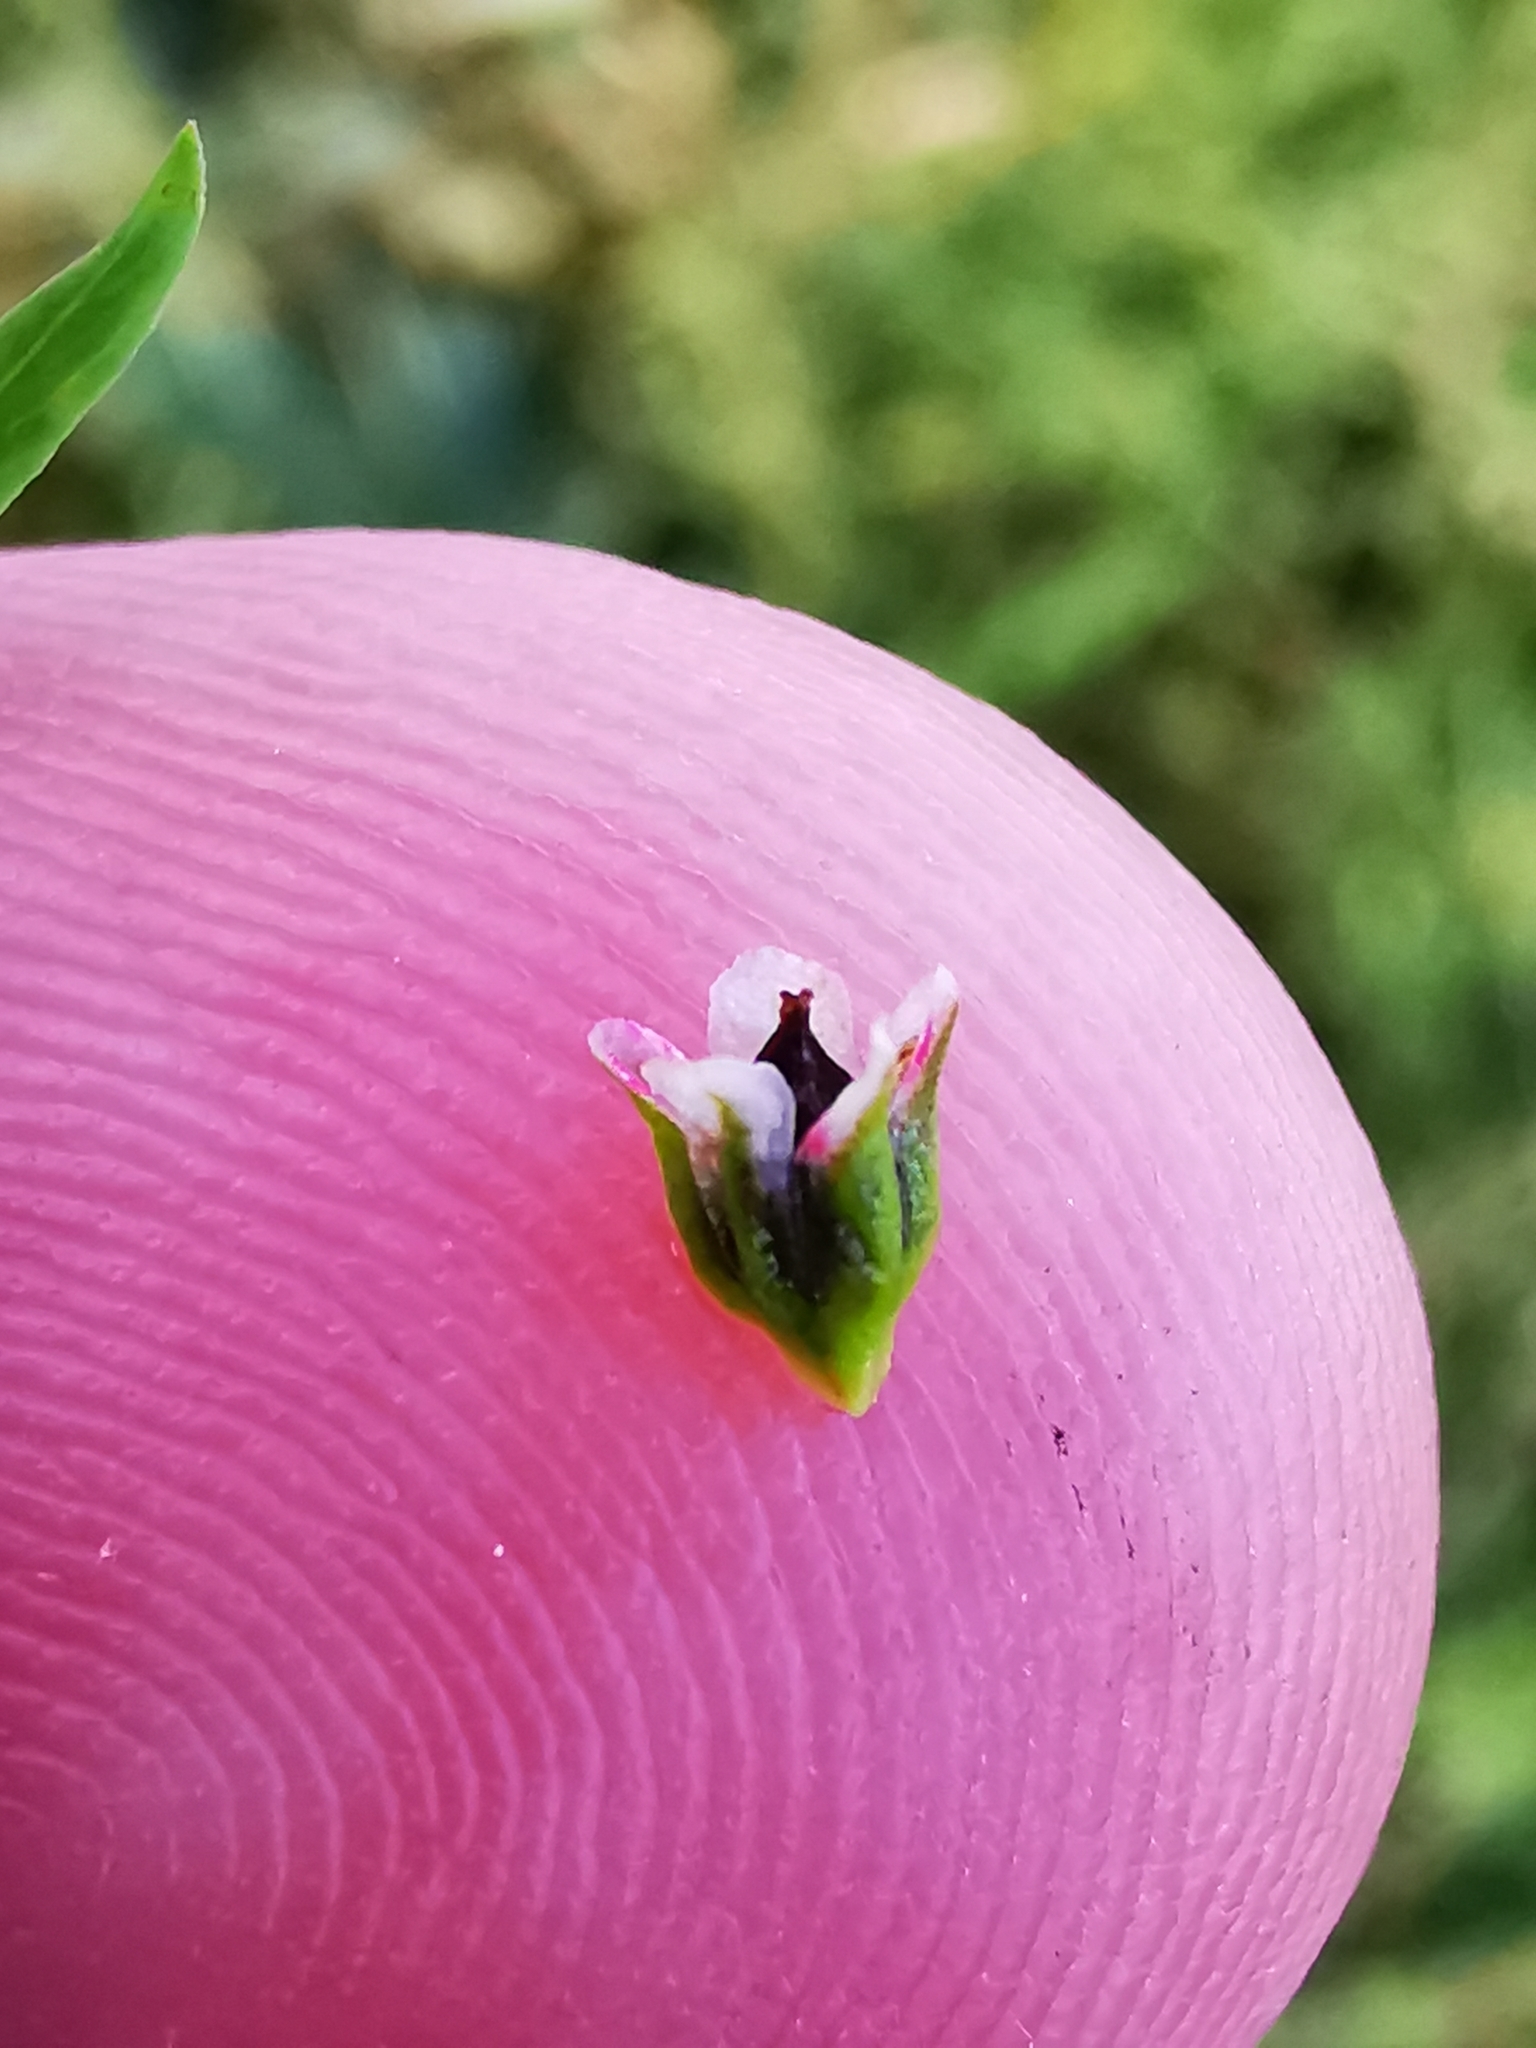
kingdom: Plantae
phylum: Tracheophyta
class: Magnoliopsida
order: Caryophyllales
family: Polygonaceae
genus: Polygonum
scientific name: Polygonum aviculare
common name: Prostrate knotweed
